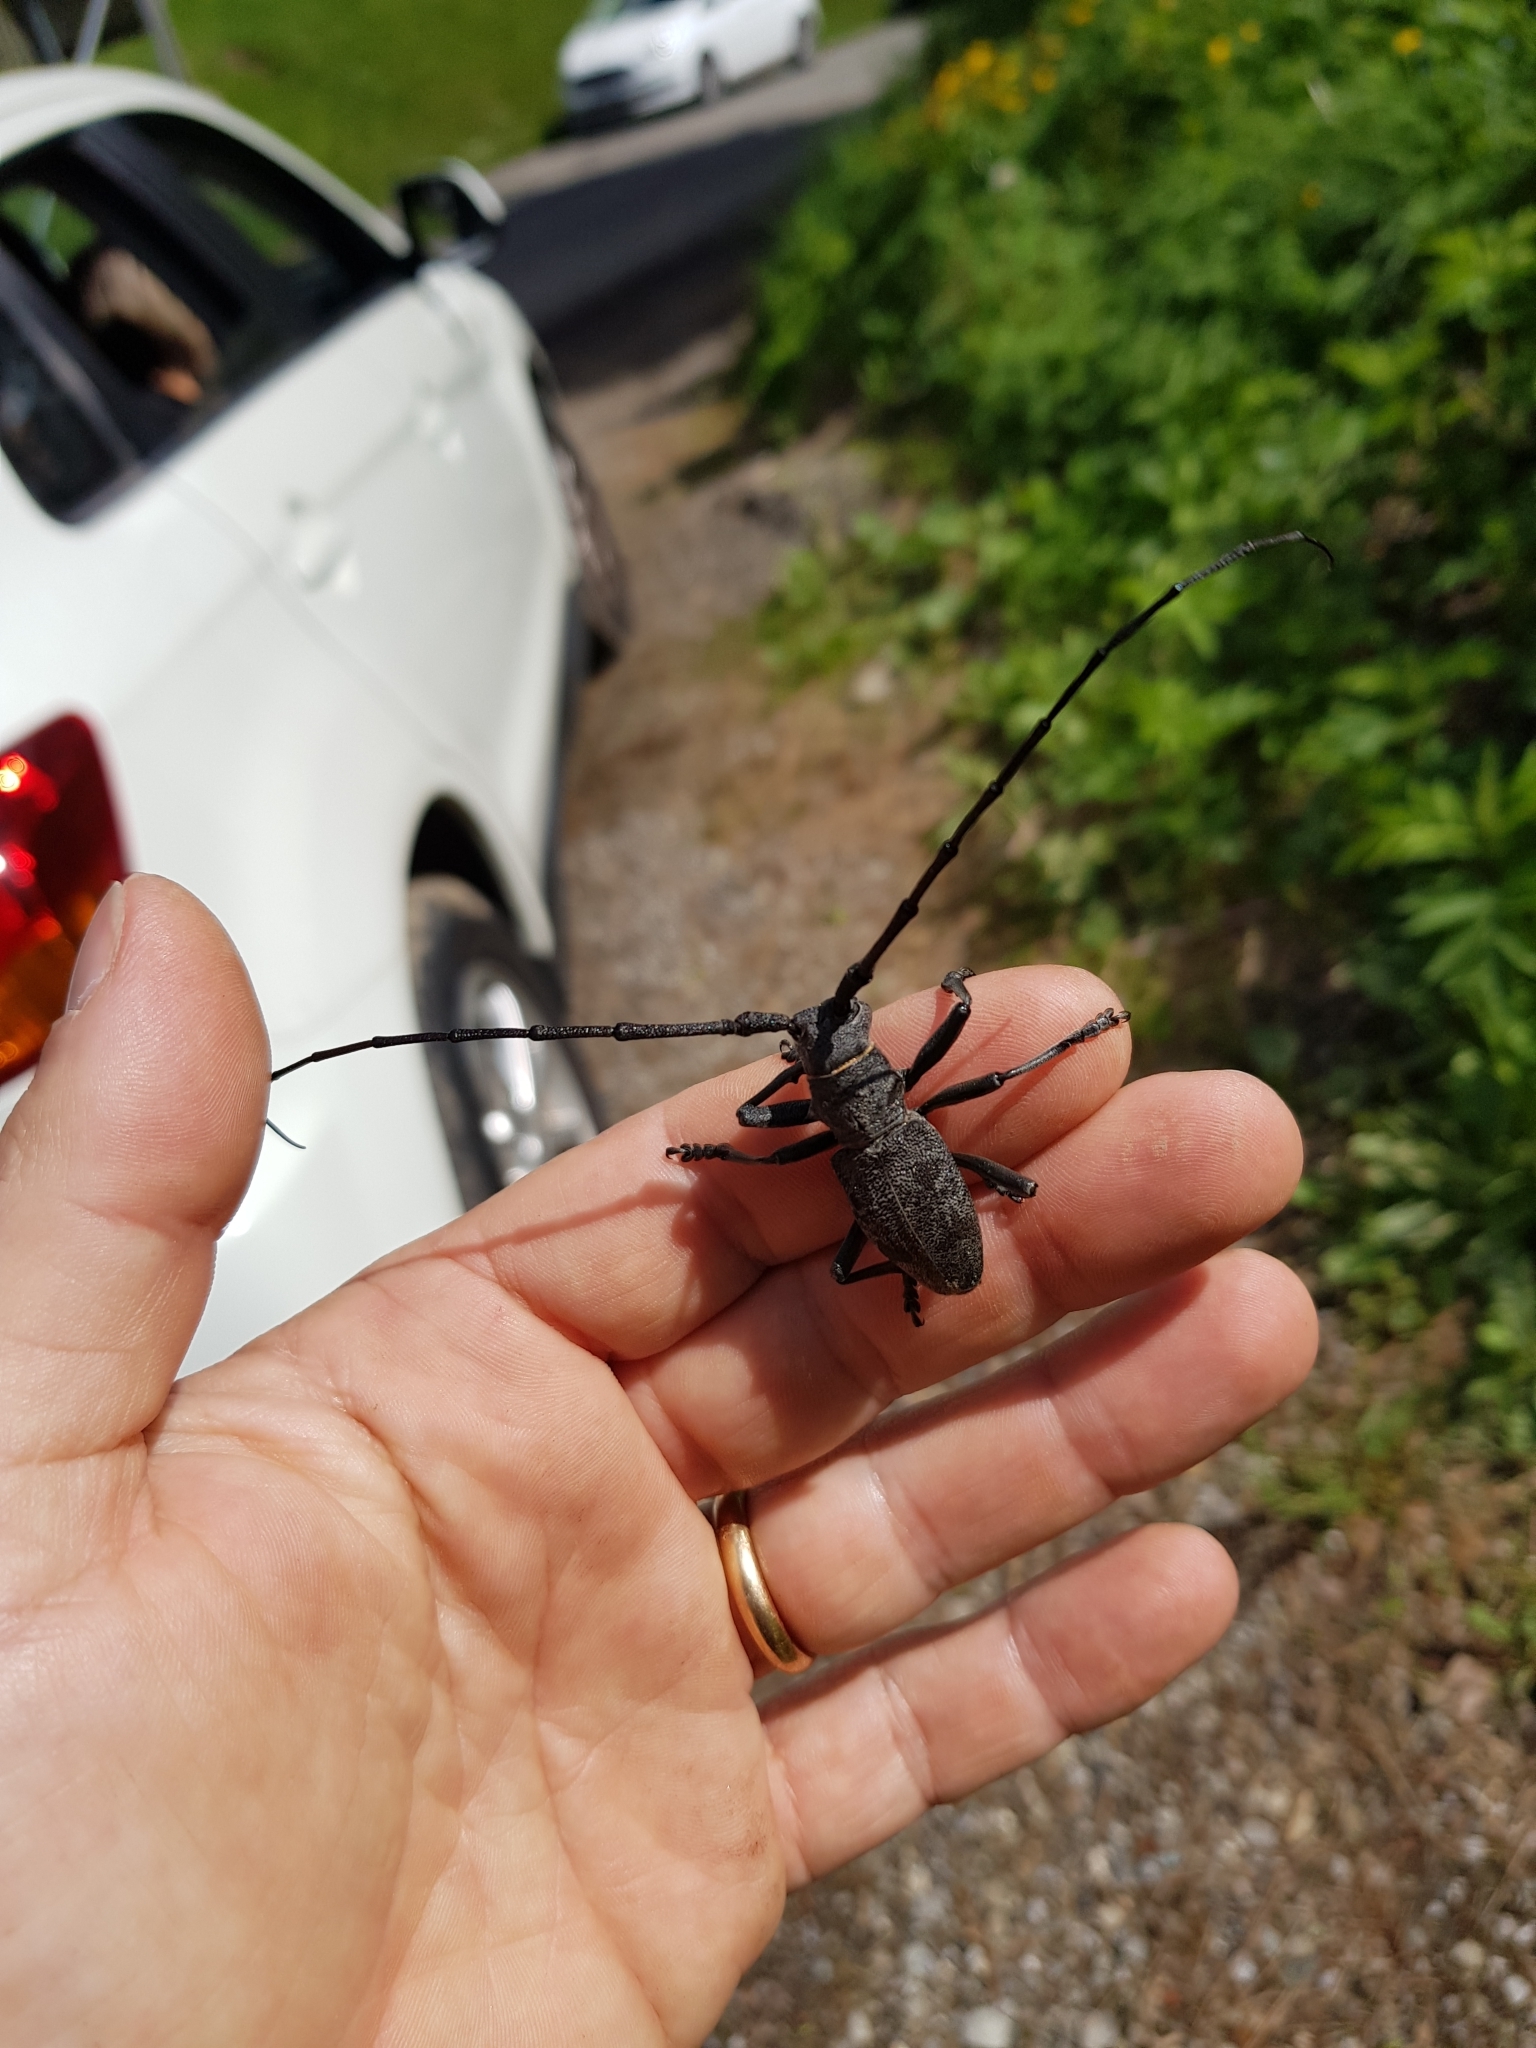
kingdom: Animalia
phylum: Arthropoda
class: Insecta
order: Coleoptera
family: Cerambycidae
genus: Morimus
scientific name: Morimus asper
